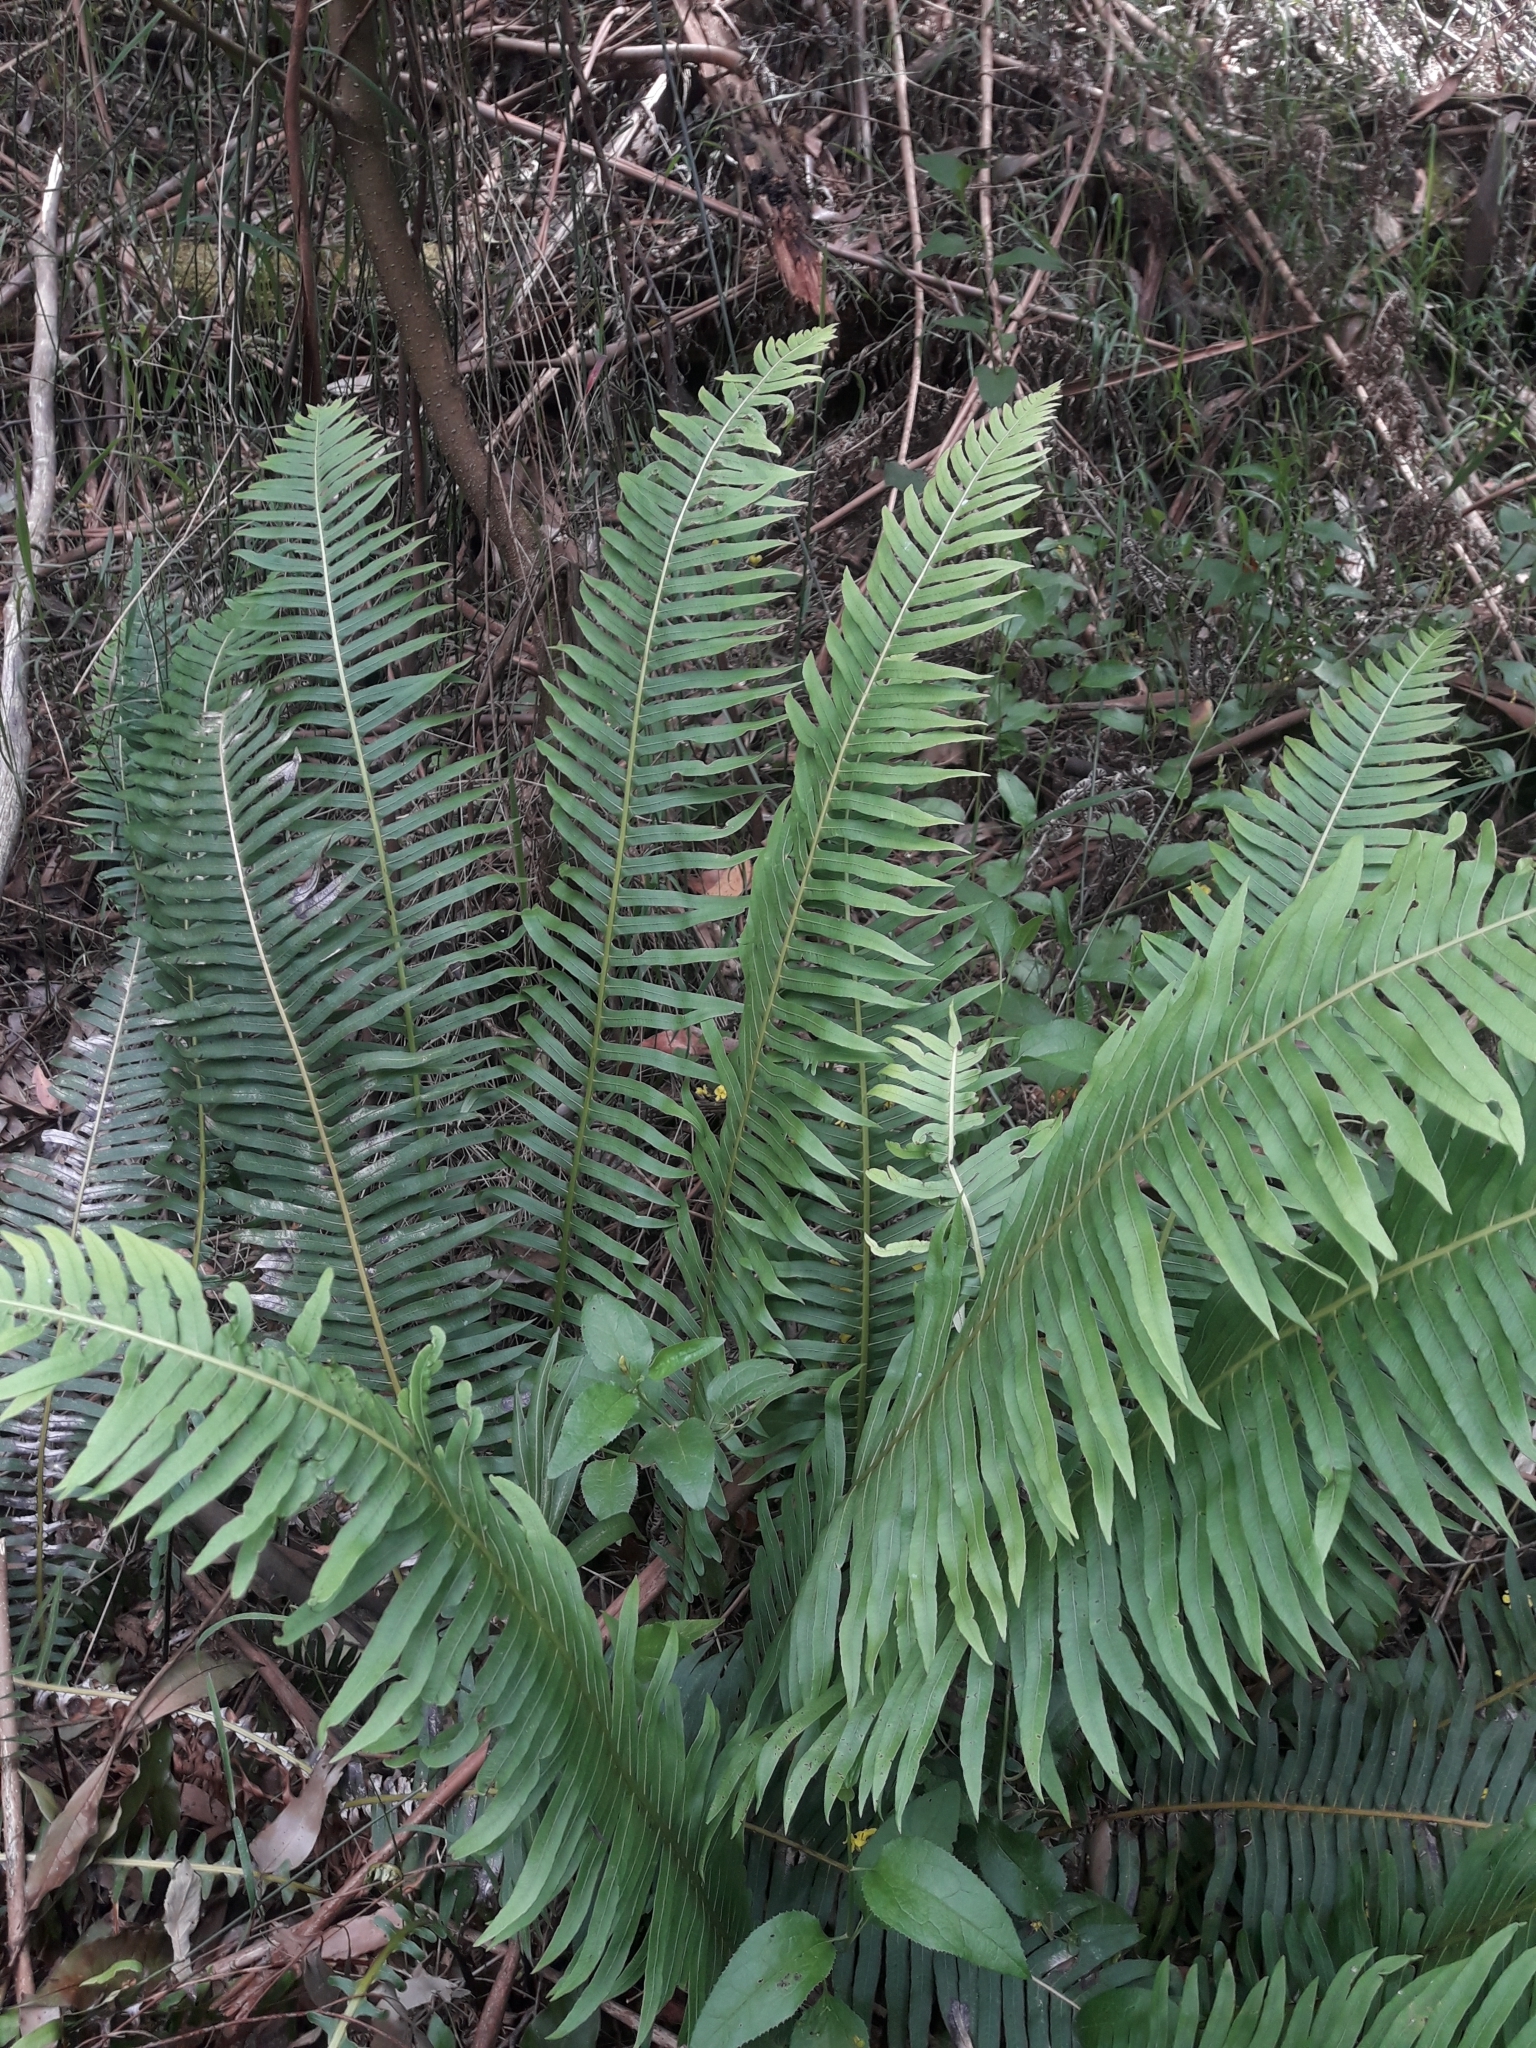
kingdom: Plantae
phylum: Tracheophyta
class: Polypodiopsida
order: Polypodiales
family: Blechnaceae
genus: Lomaria
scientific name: Lomaria nuda
